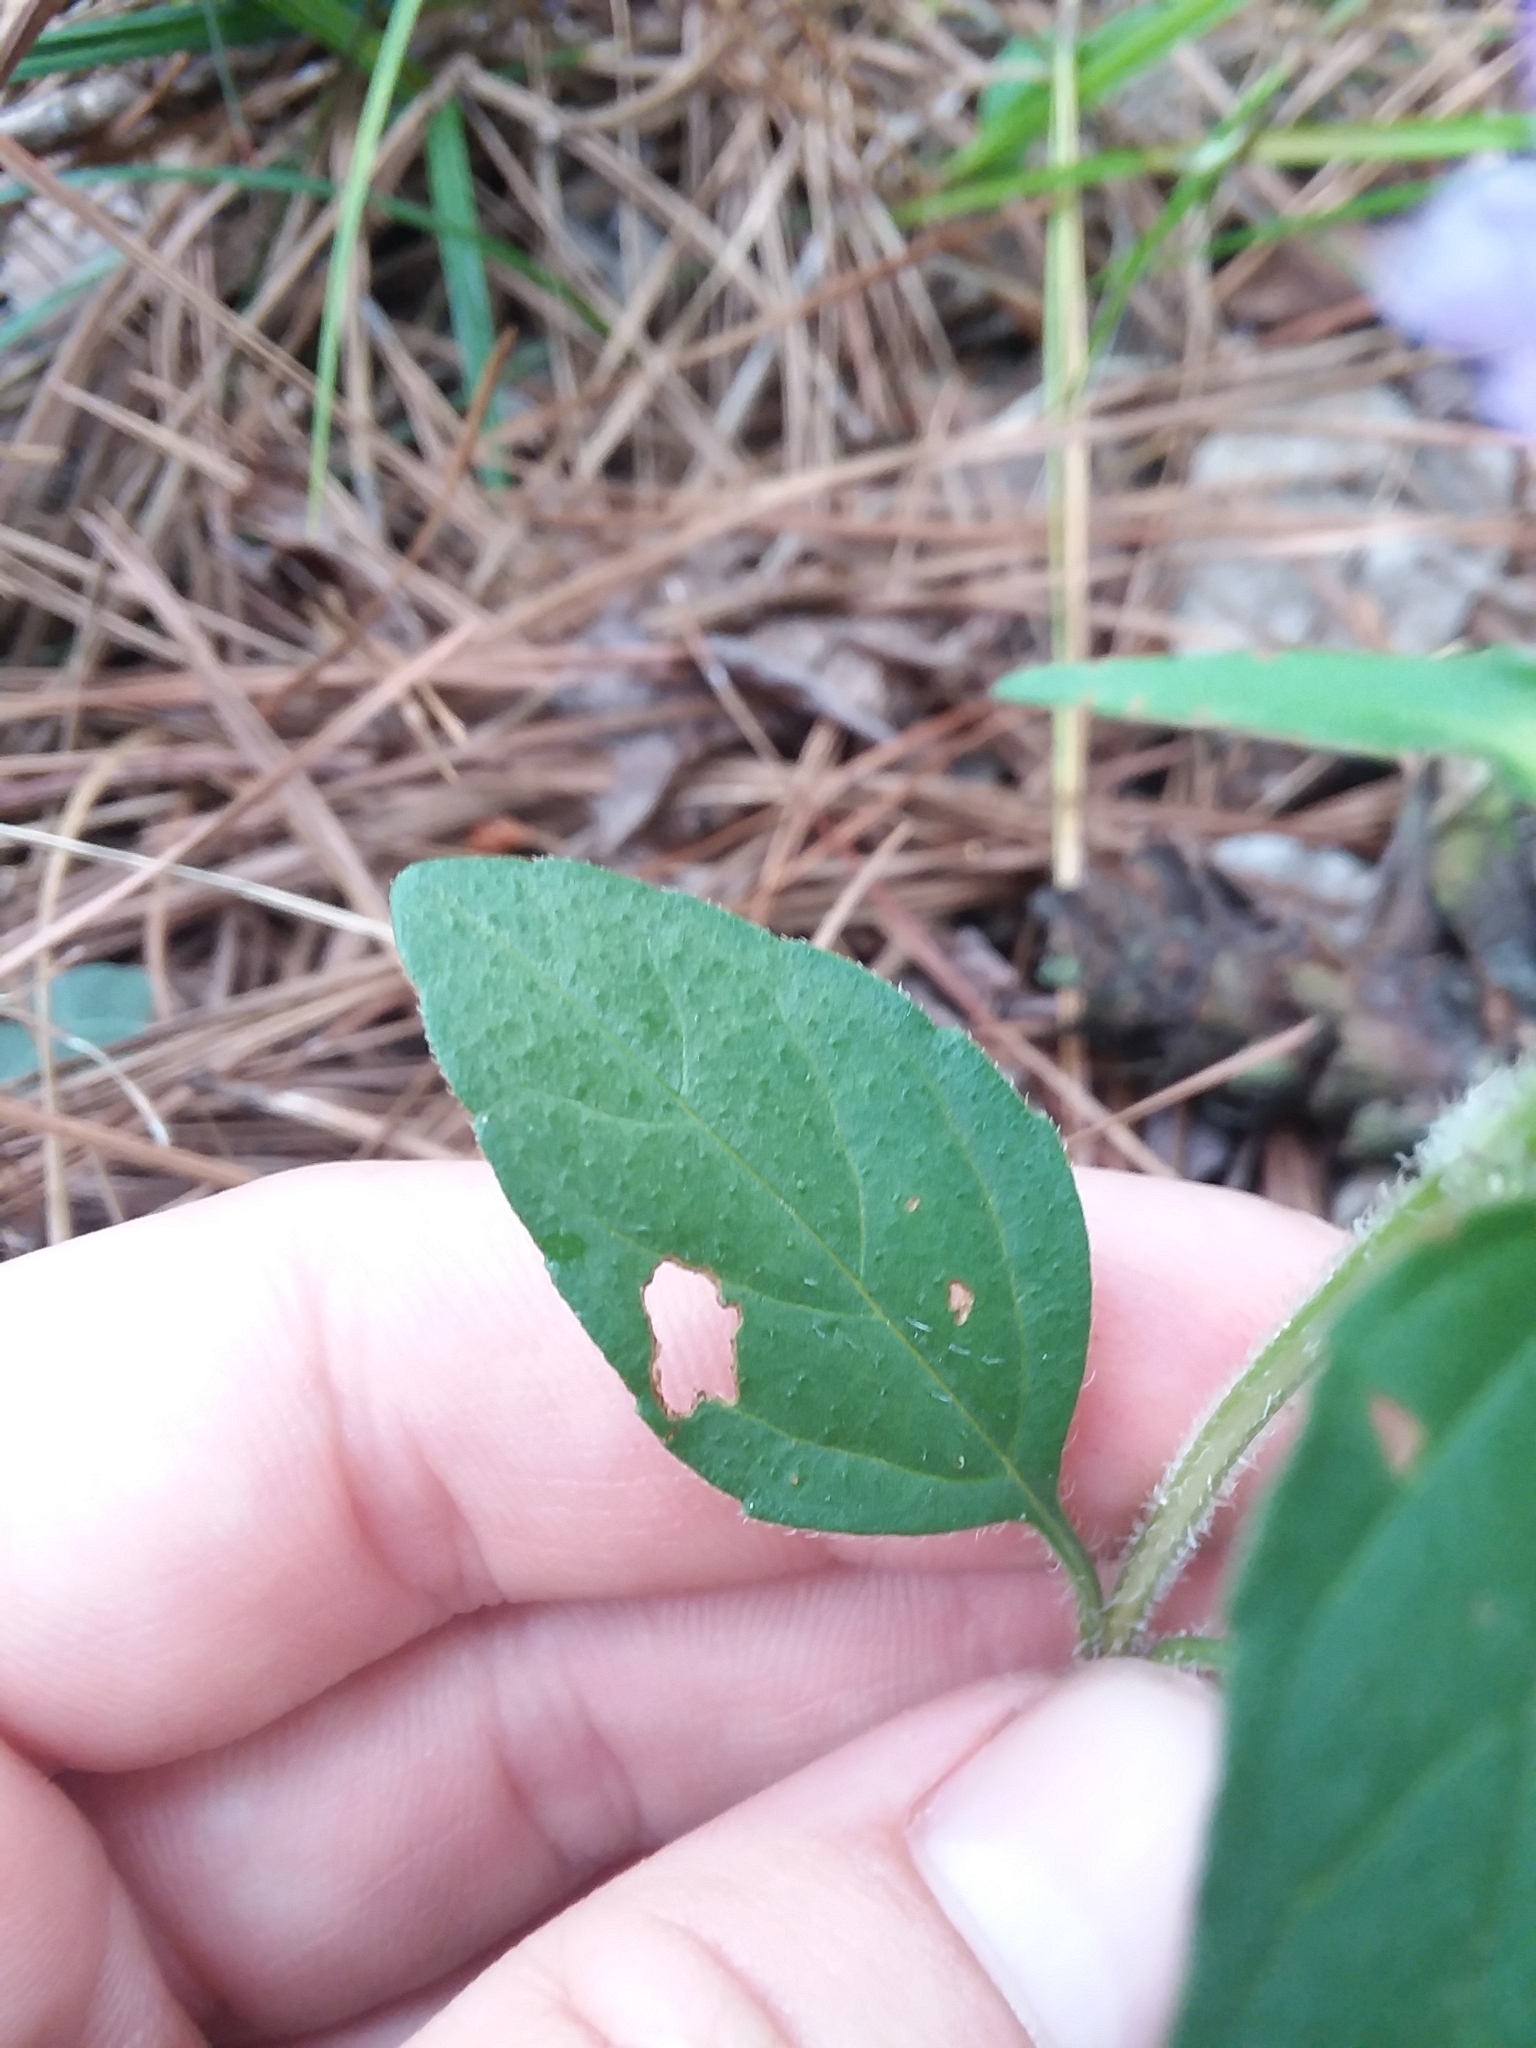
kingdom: Plantae
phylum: Tracheophyta
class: Magnoliopsida
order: Lamiales
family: Lamiaceae
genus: Prunella
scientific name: Prunella vulgaris
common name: Heal-all
